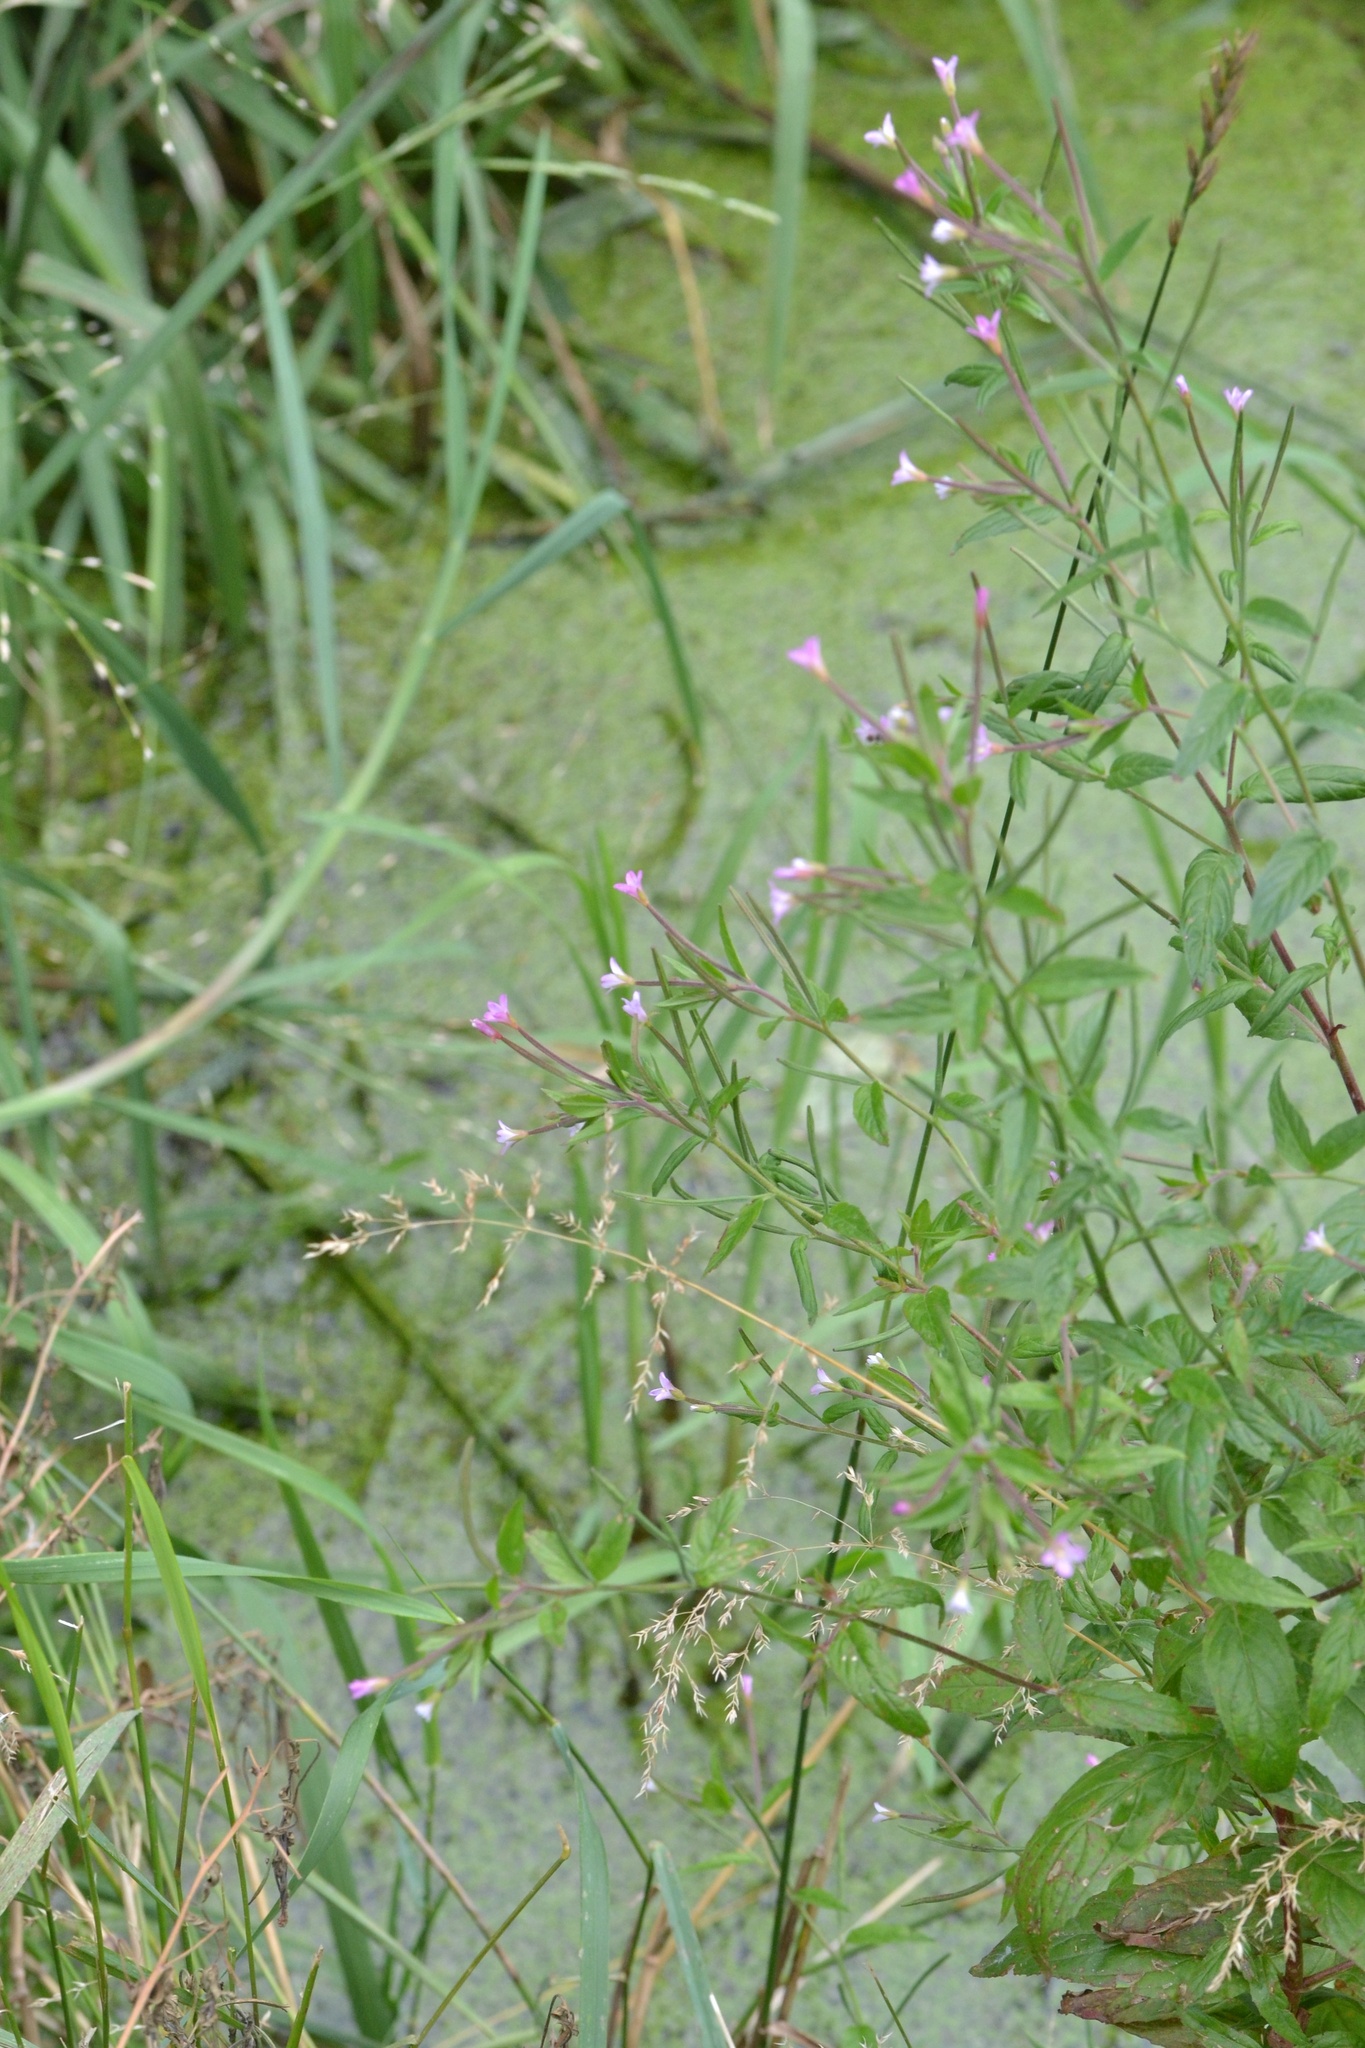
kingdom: Plantae
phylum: Tracheophyta
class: Magnoliopsida
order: Myrtales
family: Onagraceae
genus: Epilobium
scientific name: Epilobium roseum
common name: Pale willowherb
